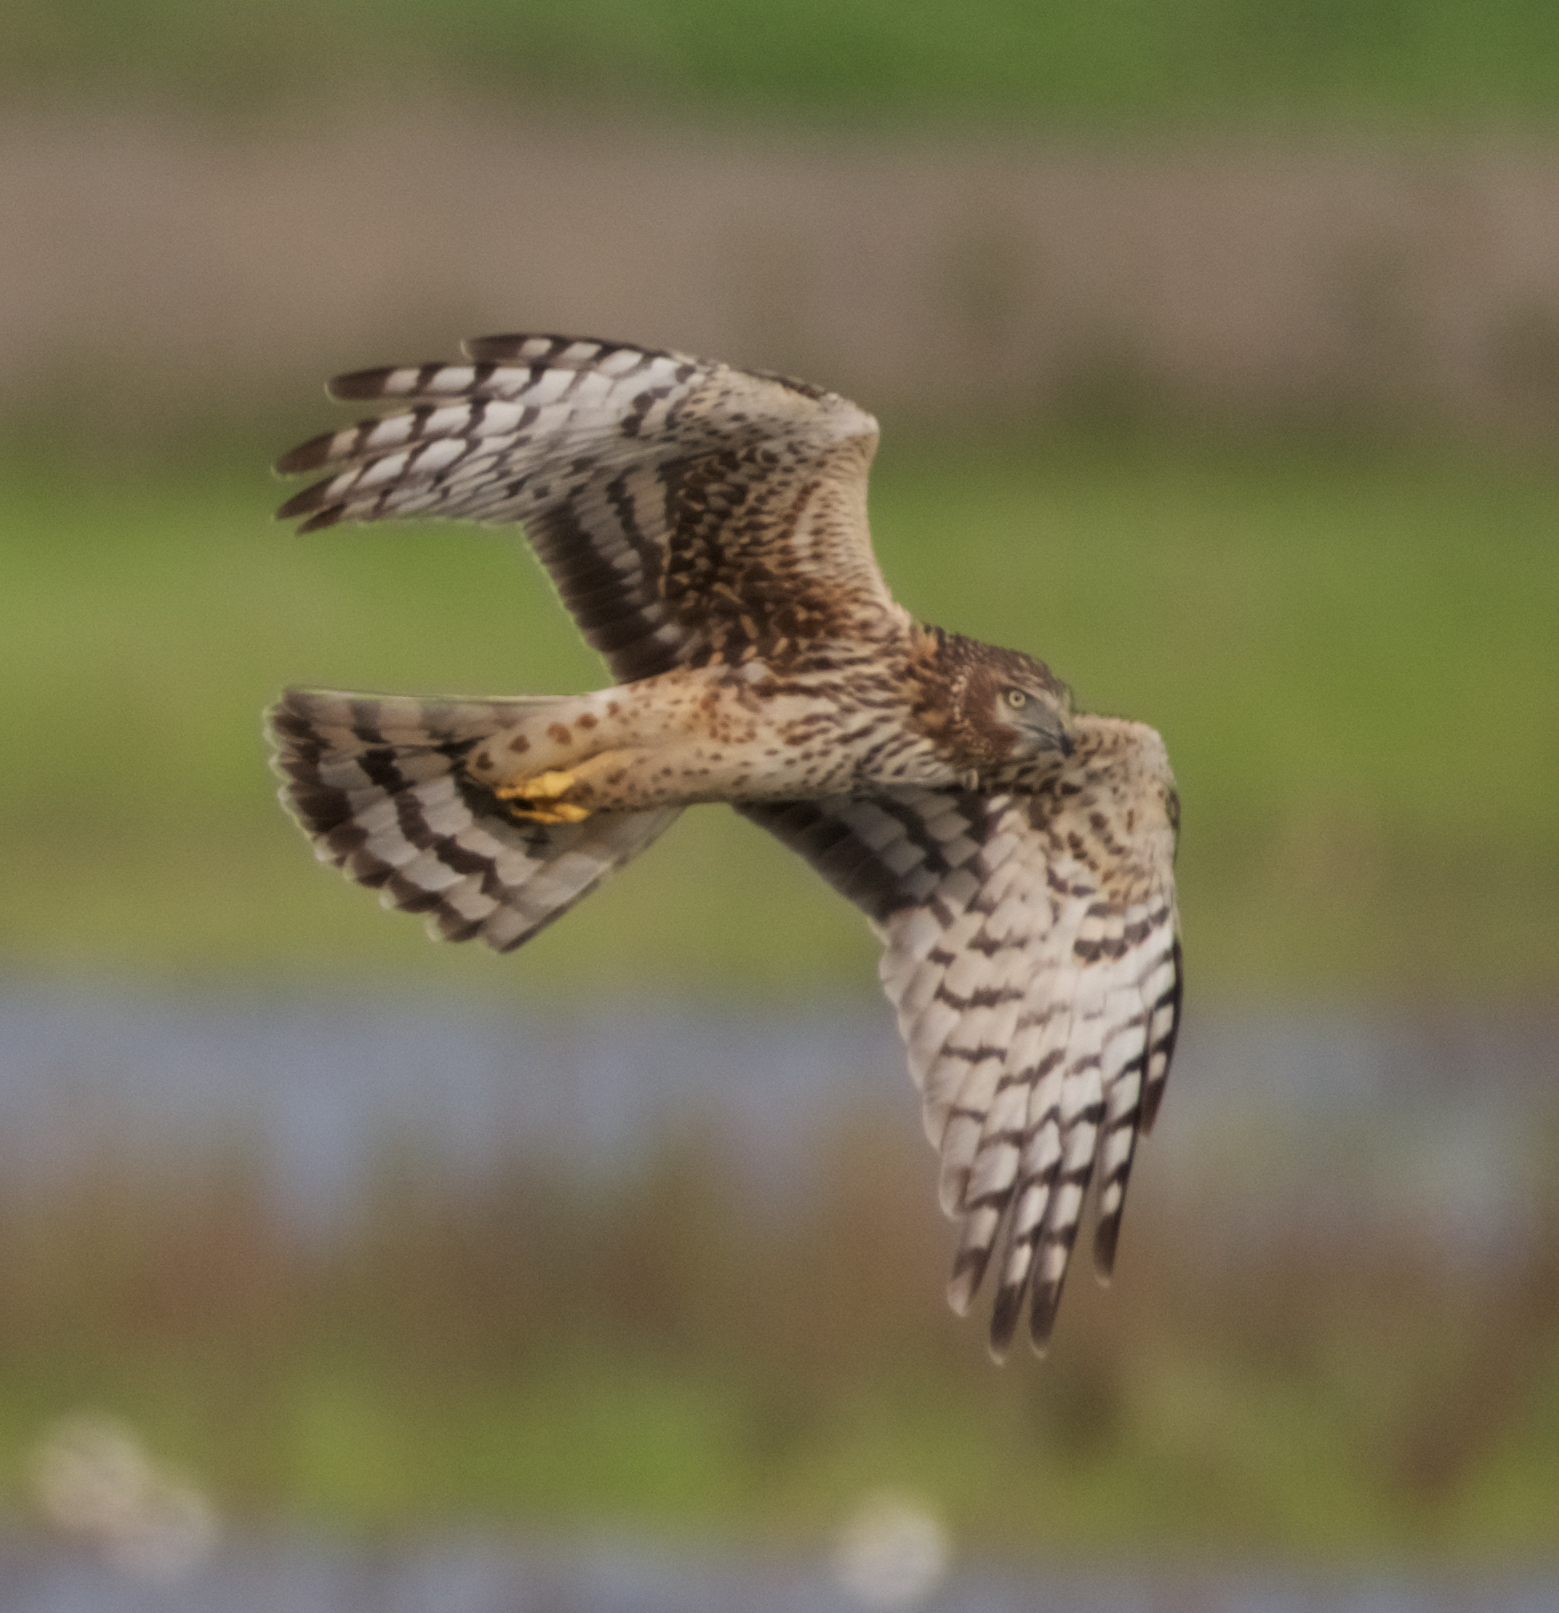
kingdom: Animalia
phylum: Chordata
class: Aves
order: Accipitriformes
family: Accipitridae
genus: Circus
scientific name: Circus cyaneus
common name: Hen harrier
